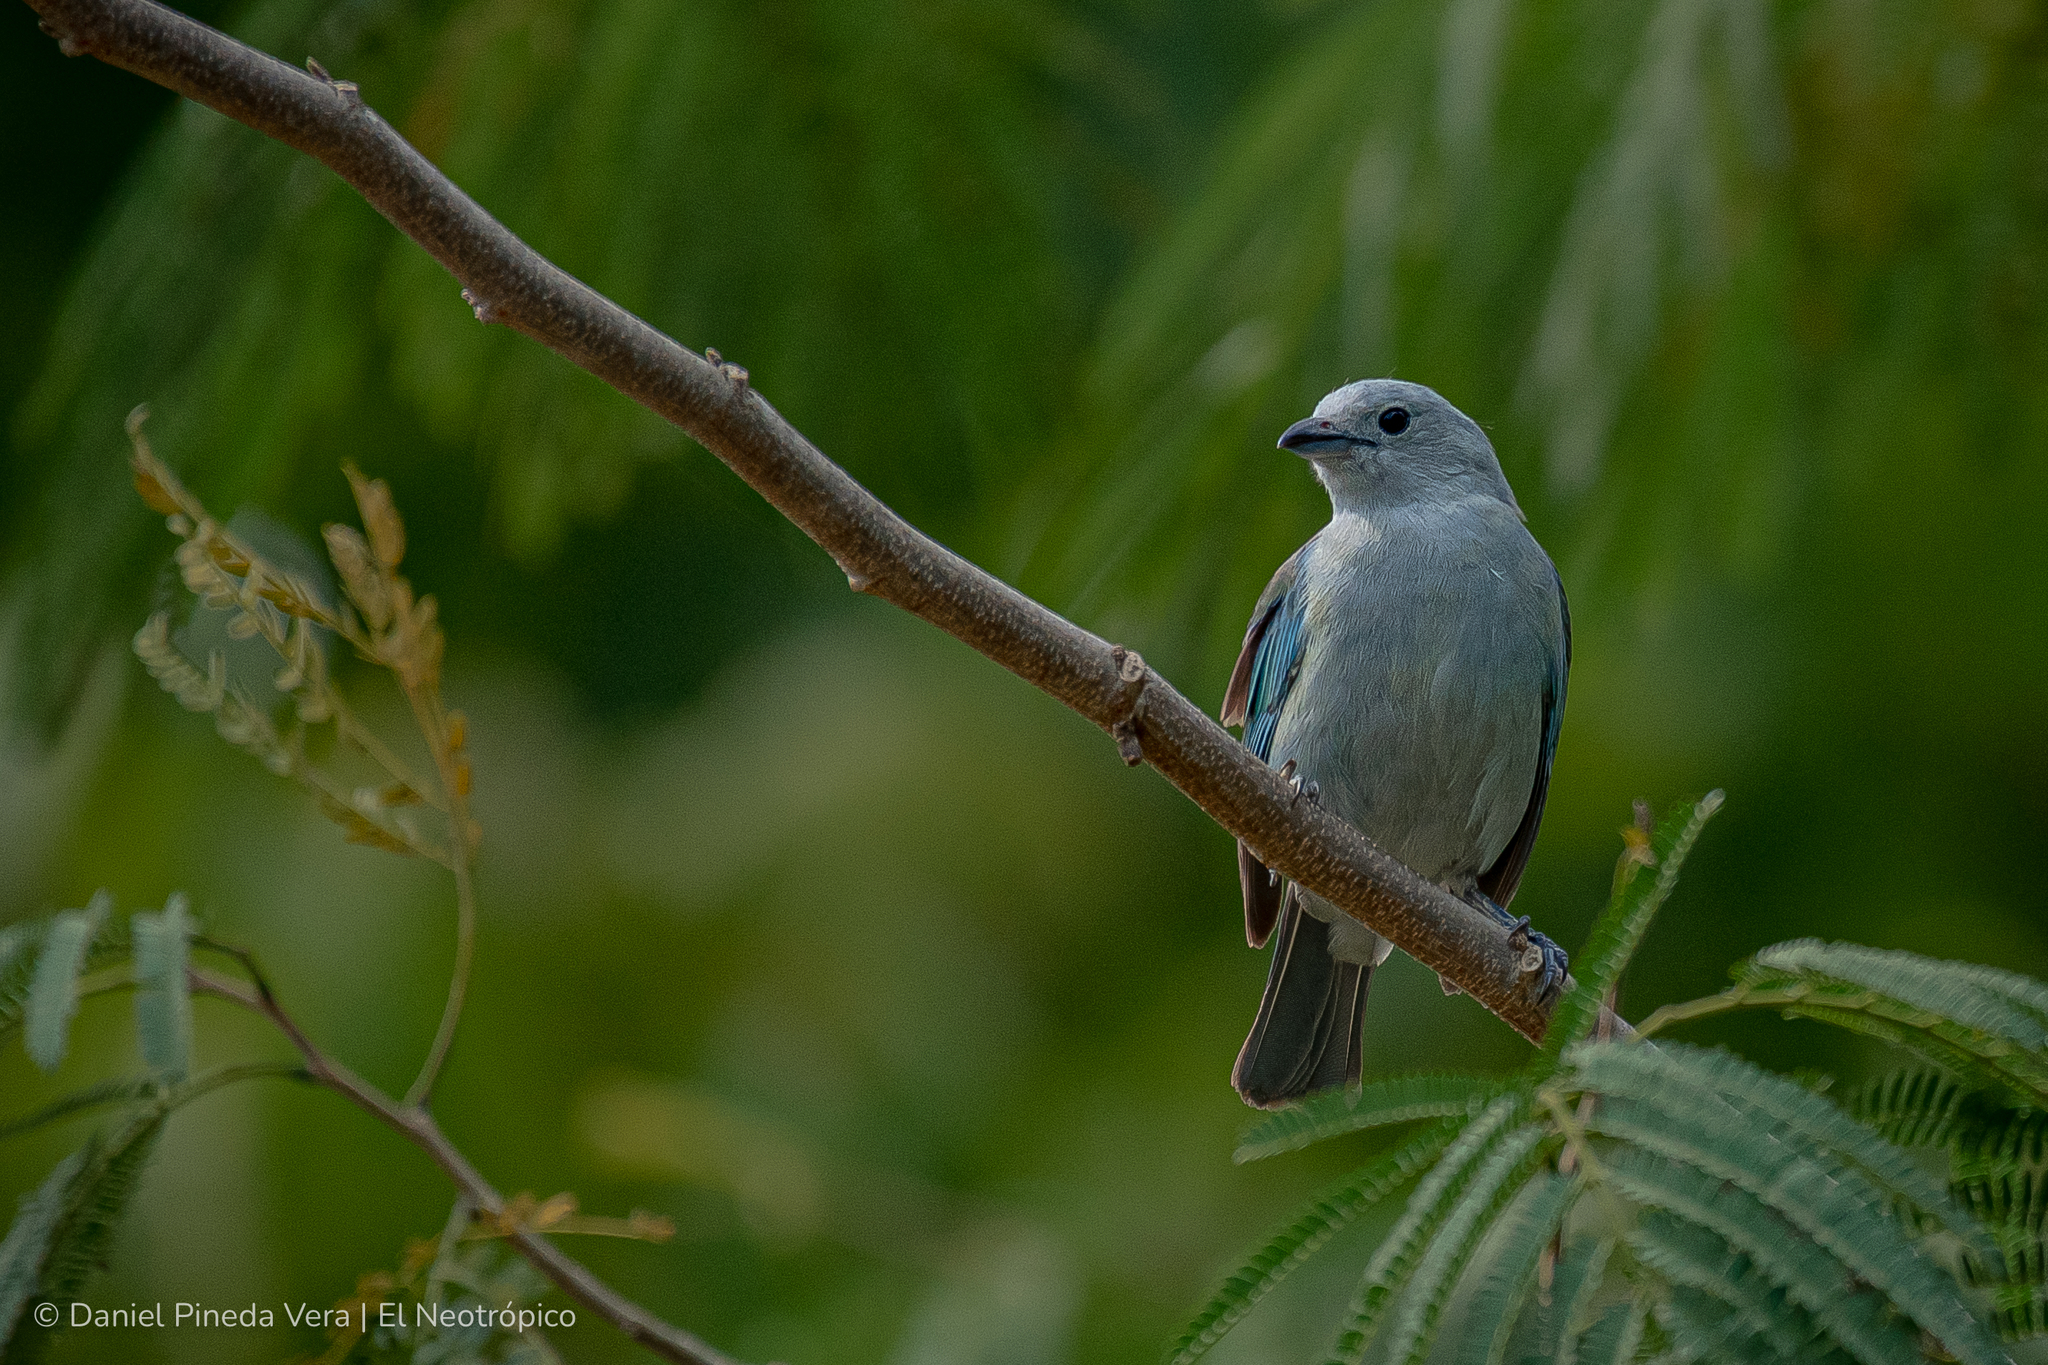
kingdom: Animalia
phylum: Chordata
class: Aves
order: Passeriformes
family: Thraupidae
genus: Thraupis
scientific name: Thraupis episcopus
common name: Blue-grey tanager
